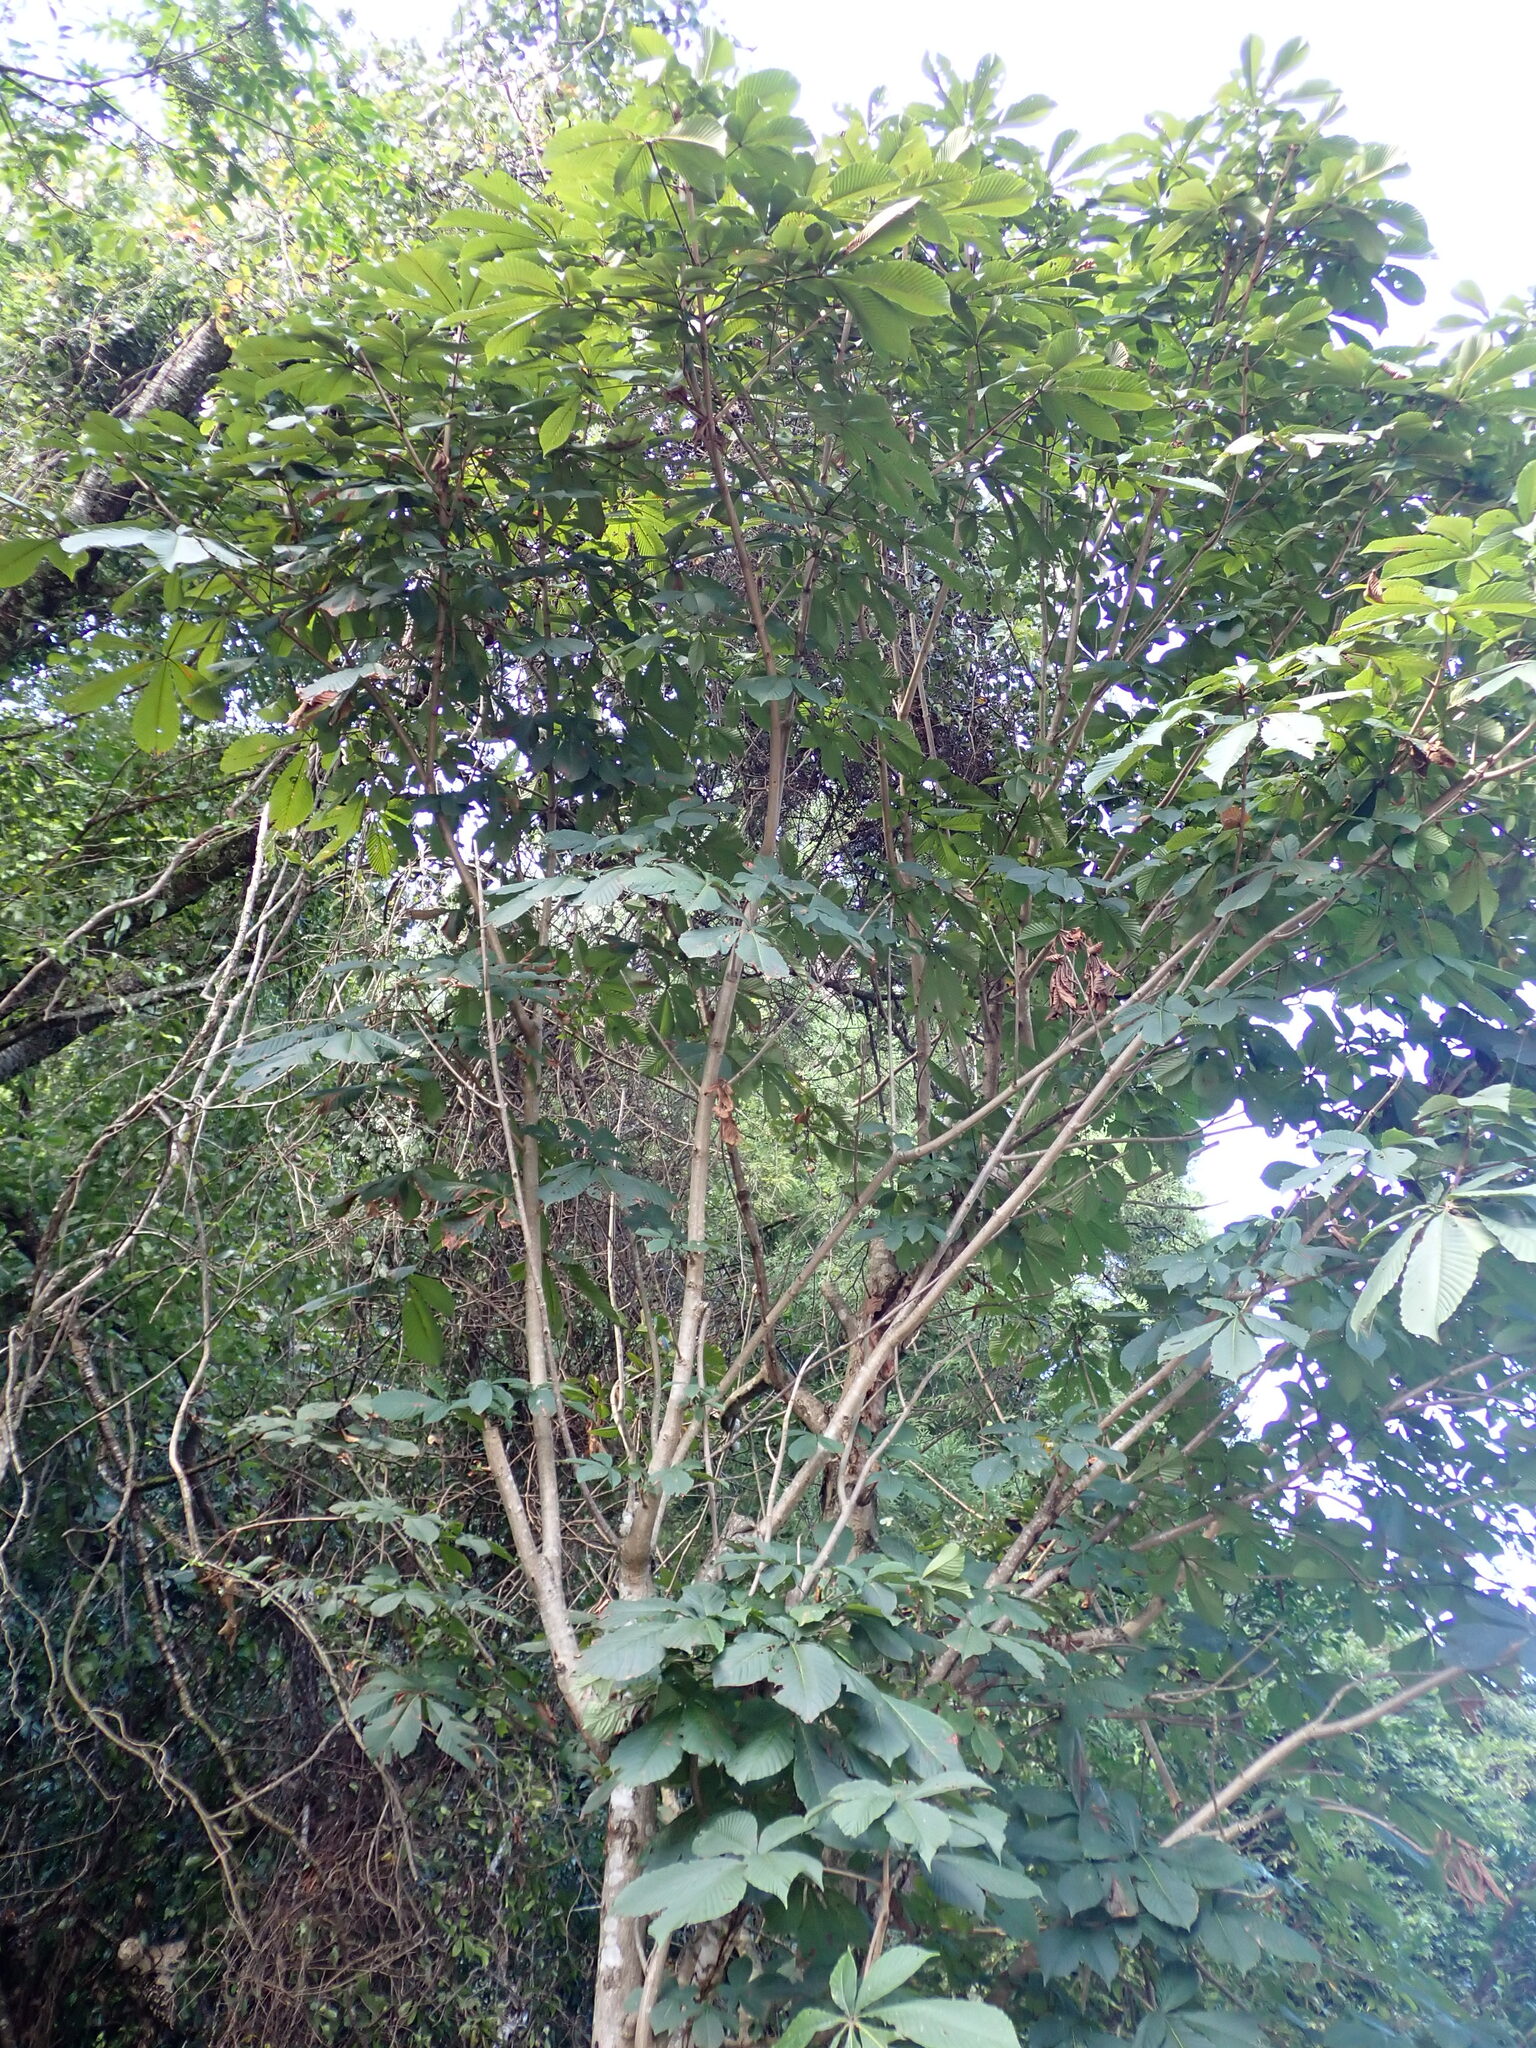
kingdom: Plantae
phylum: Tracheophyta
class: Magnoliopsida
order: Sapindales
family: Sapindaceae
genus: Aesculus
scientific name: Aesculus turbinata
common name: Japanese horse-chestnut
